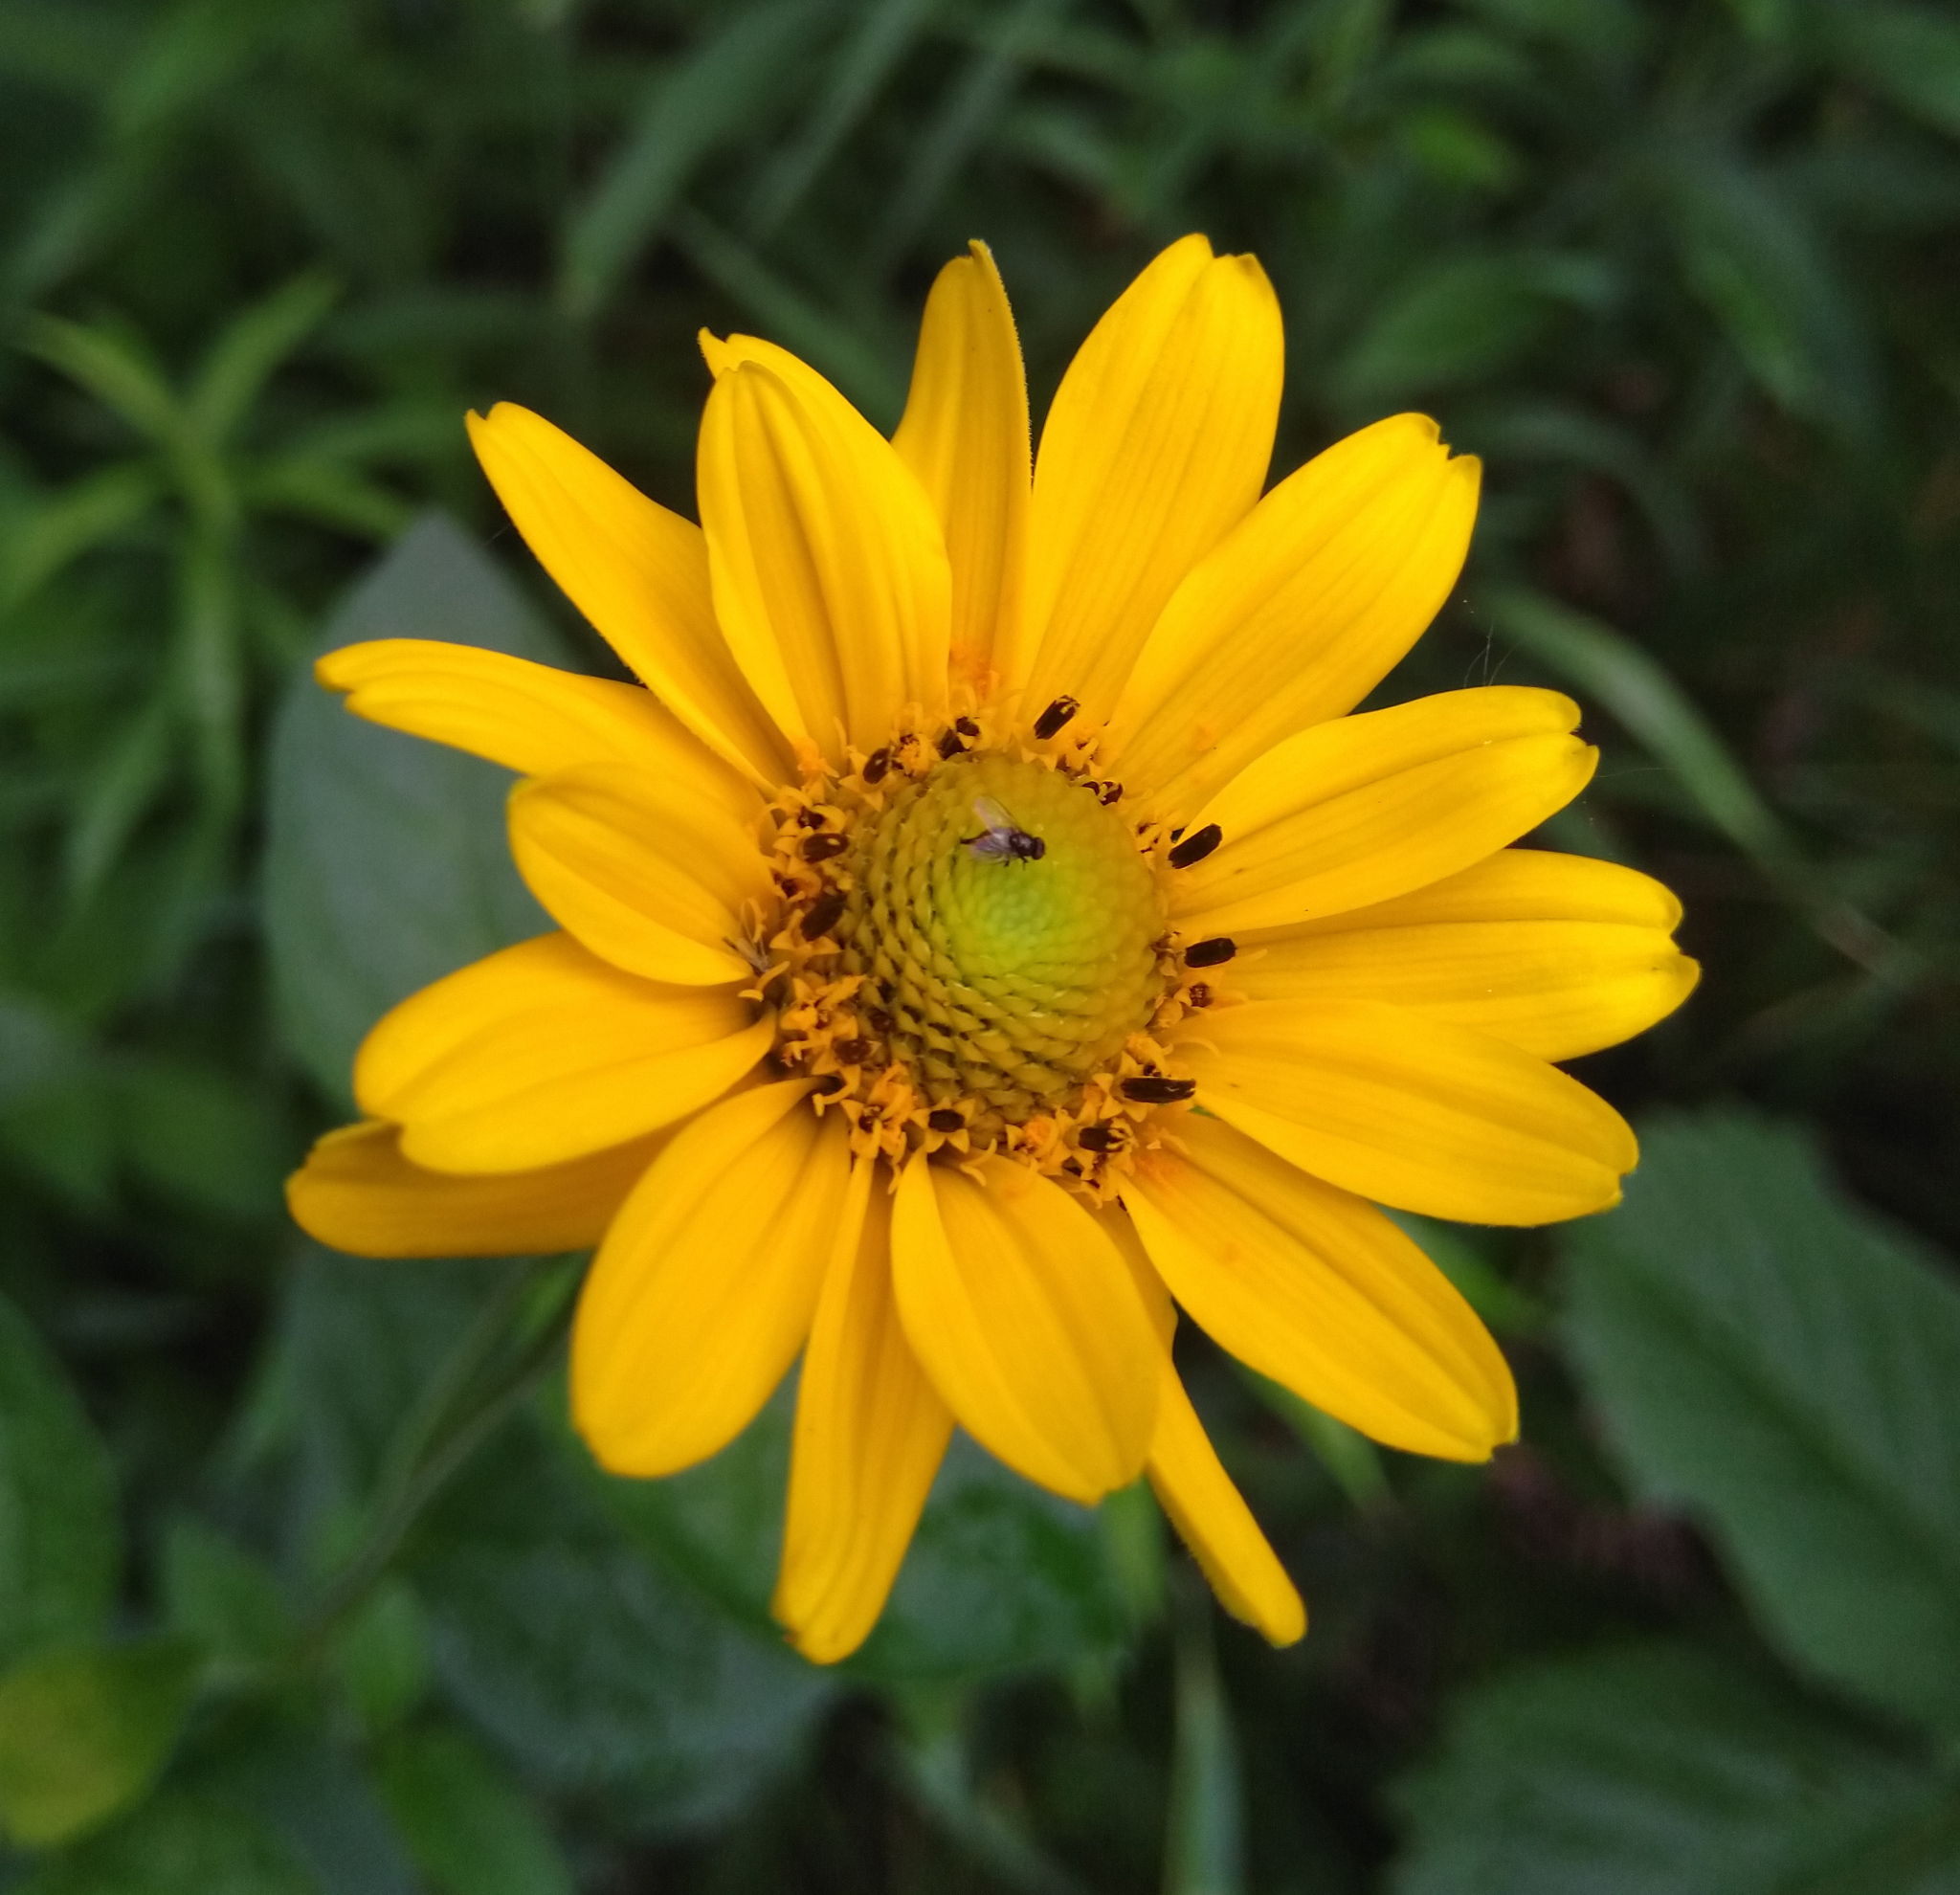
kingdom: Plantae
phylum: Tracheophyta
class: Magnoliopsida
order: Asterales
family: Asteraceae
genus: Heliopsis
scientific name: Heliopsis helianthoides
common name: False sunflower
